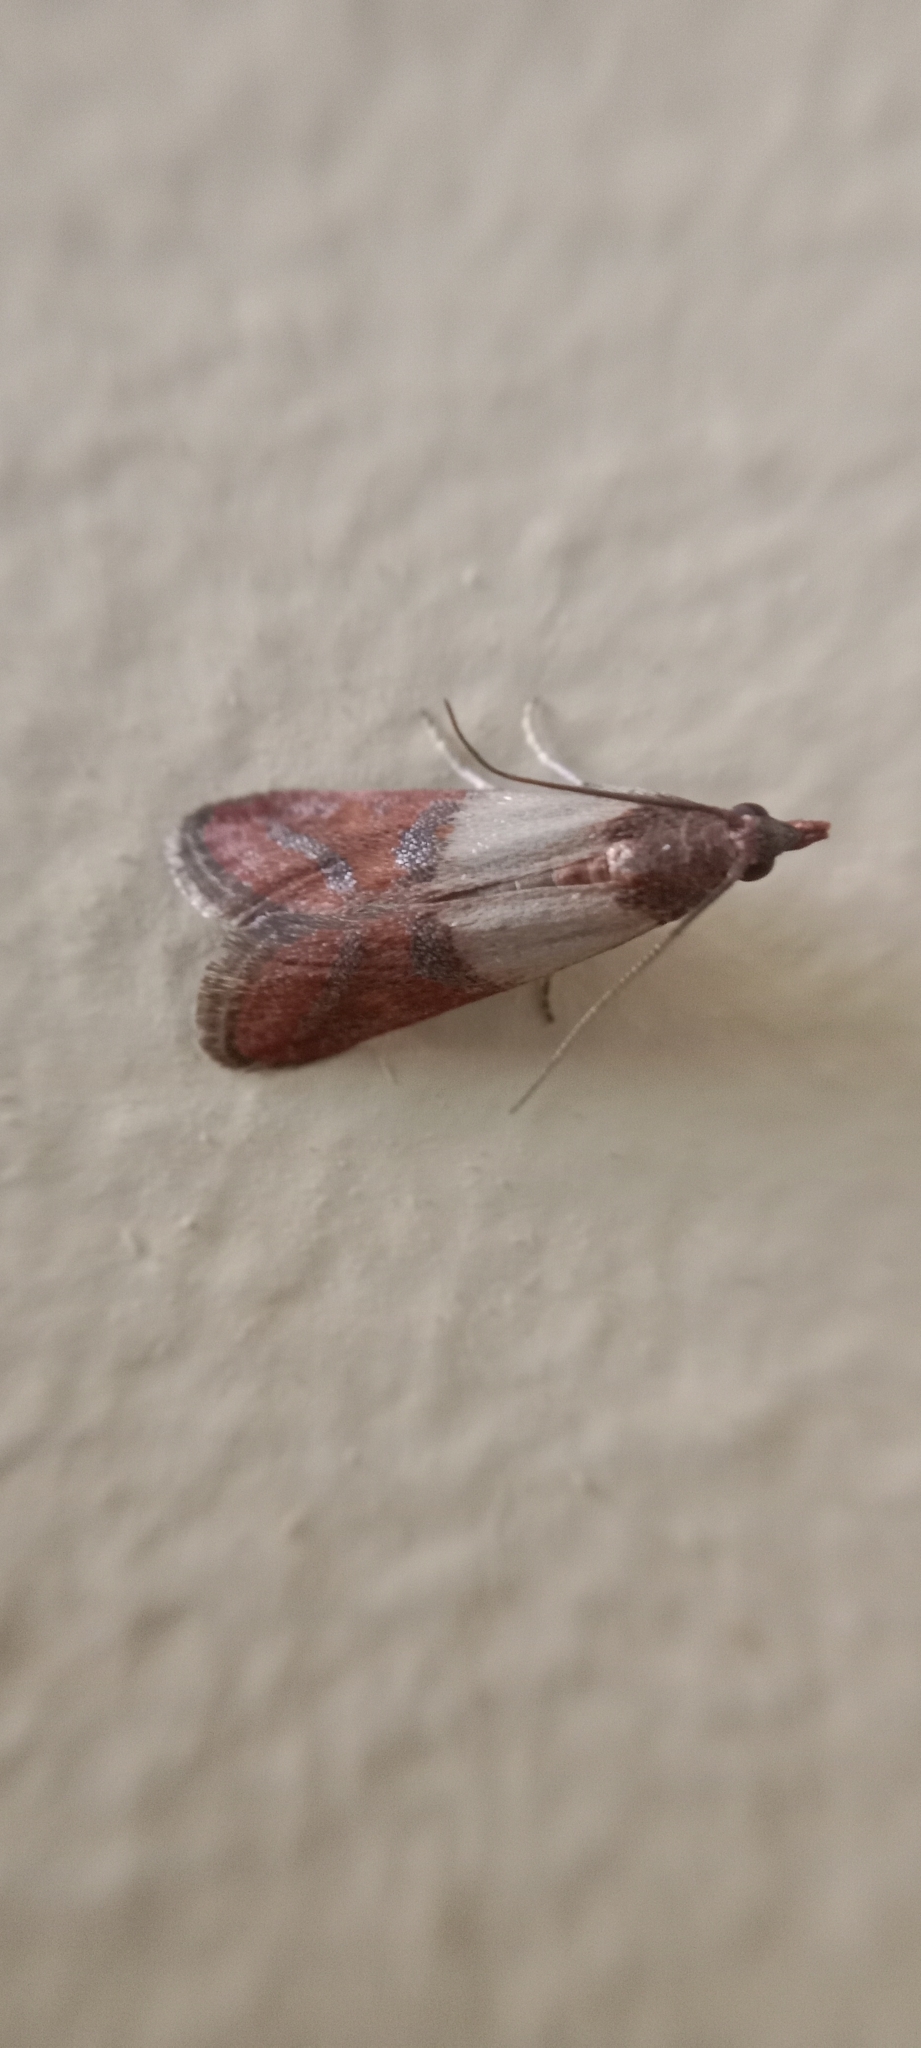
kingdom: Animalia
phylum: Arthropoda
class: Insecta
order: Lepidoptera
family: Pyralidae
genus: Plodia
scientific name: Plodia interpunctella
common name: Indian meal moth
